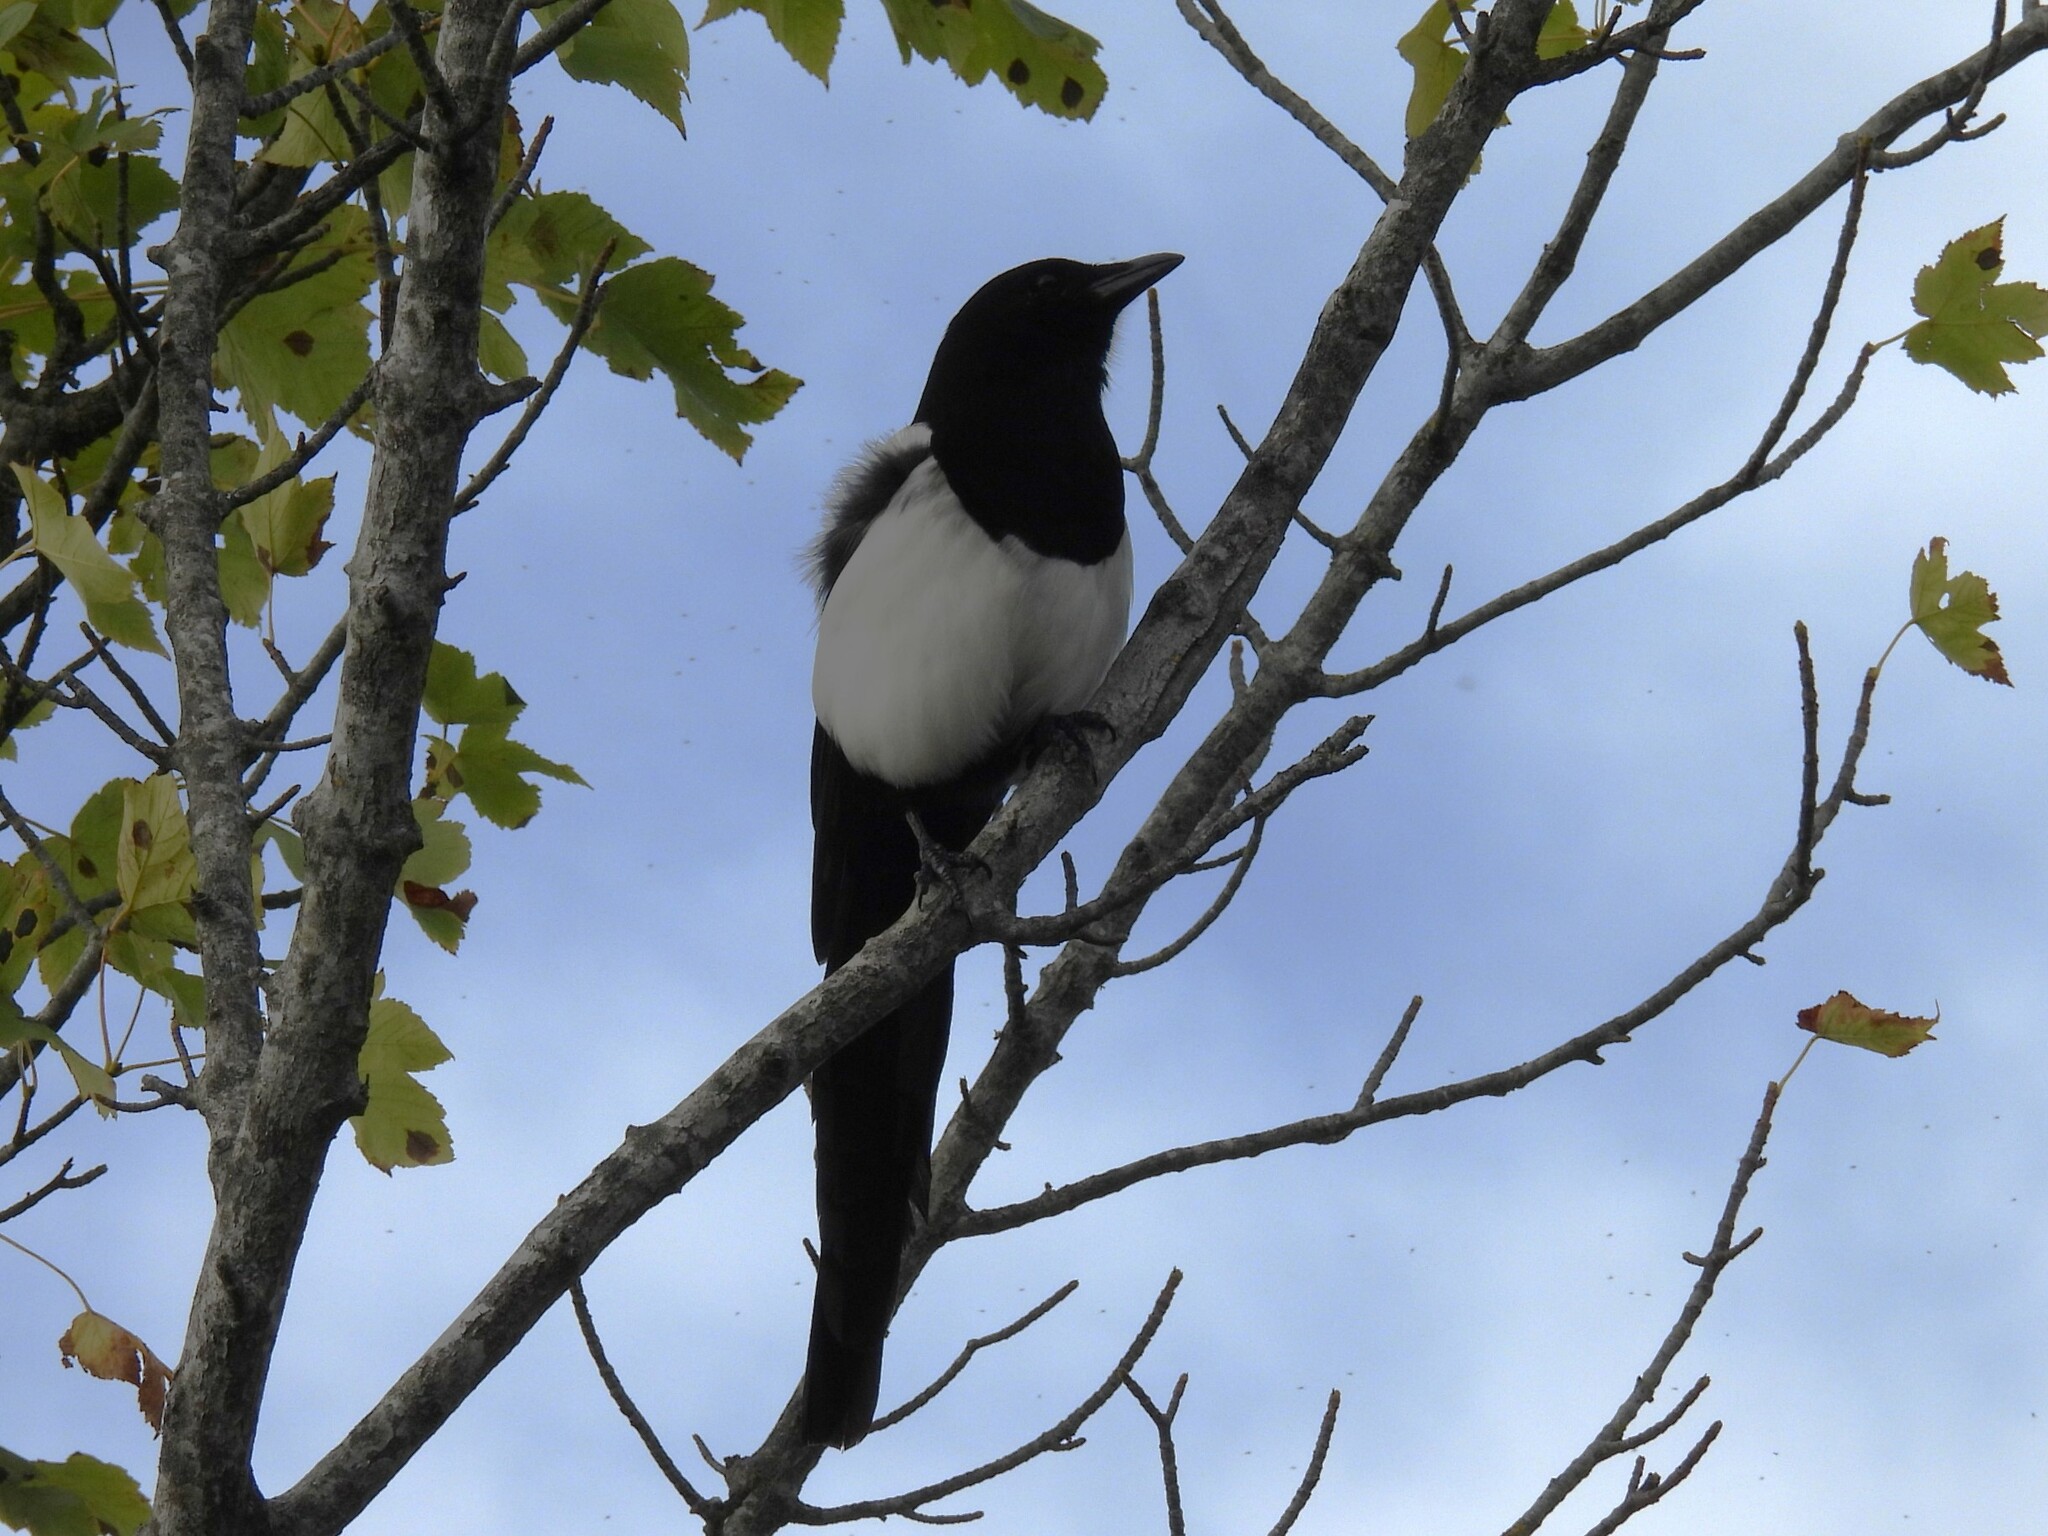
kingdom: Animalia
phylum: Chordata
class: Aves
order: Passeriformes
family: Corvidae
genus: Pica
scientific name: Pica pica
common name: Eurasian magpie
